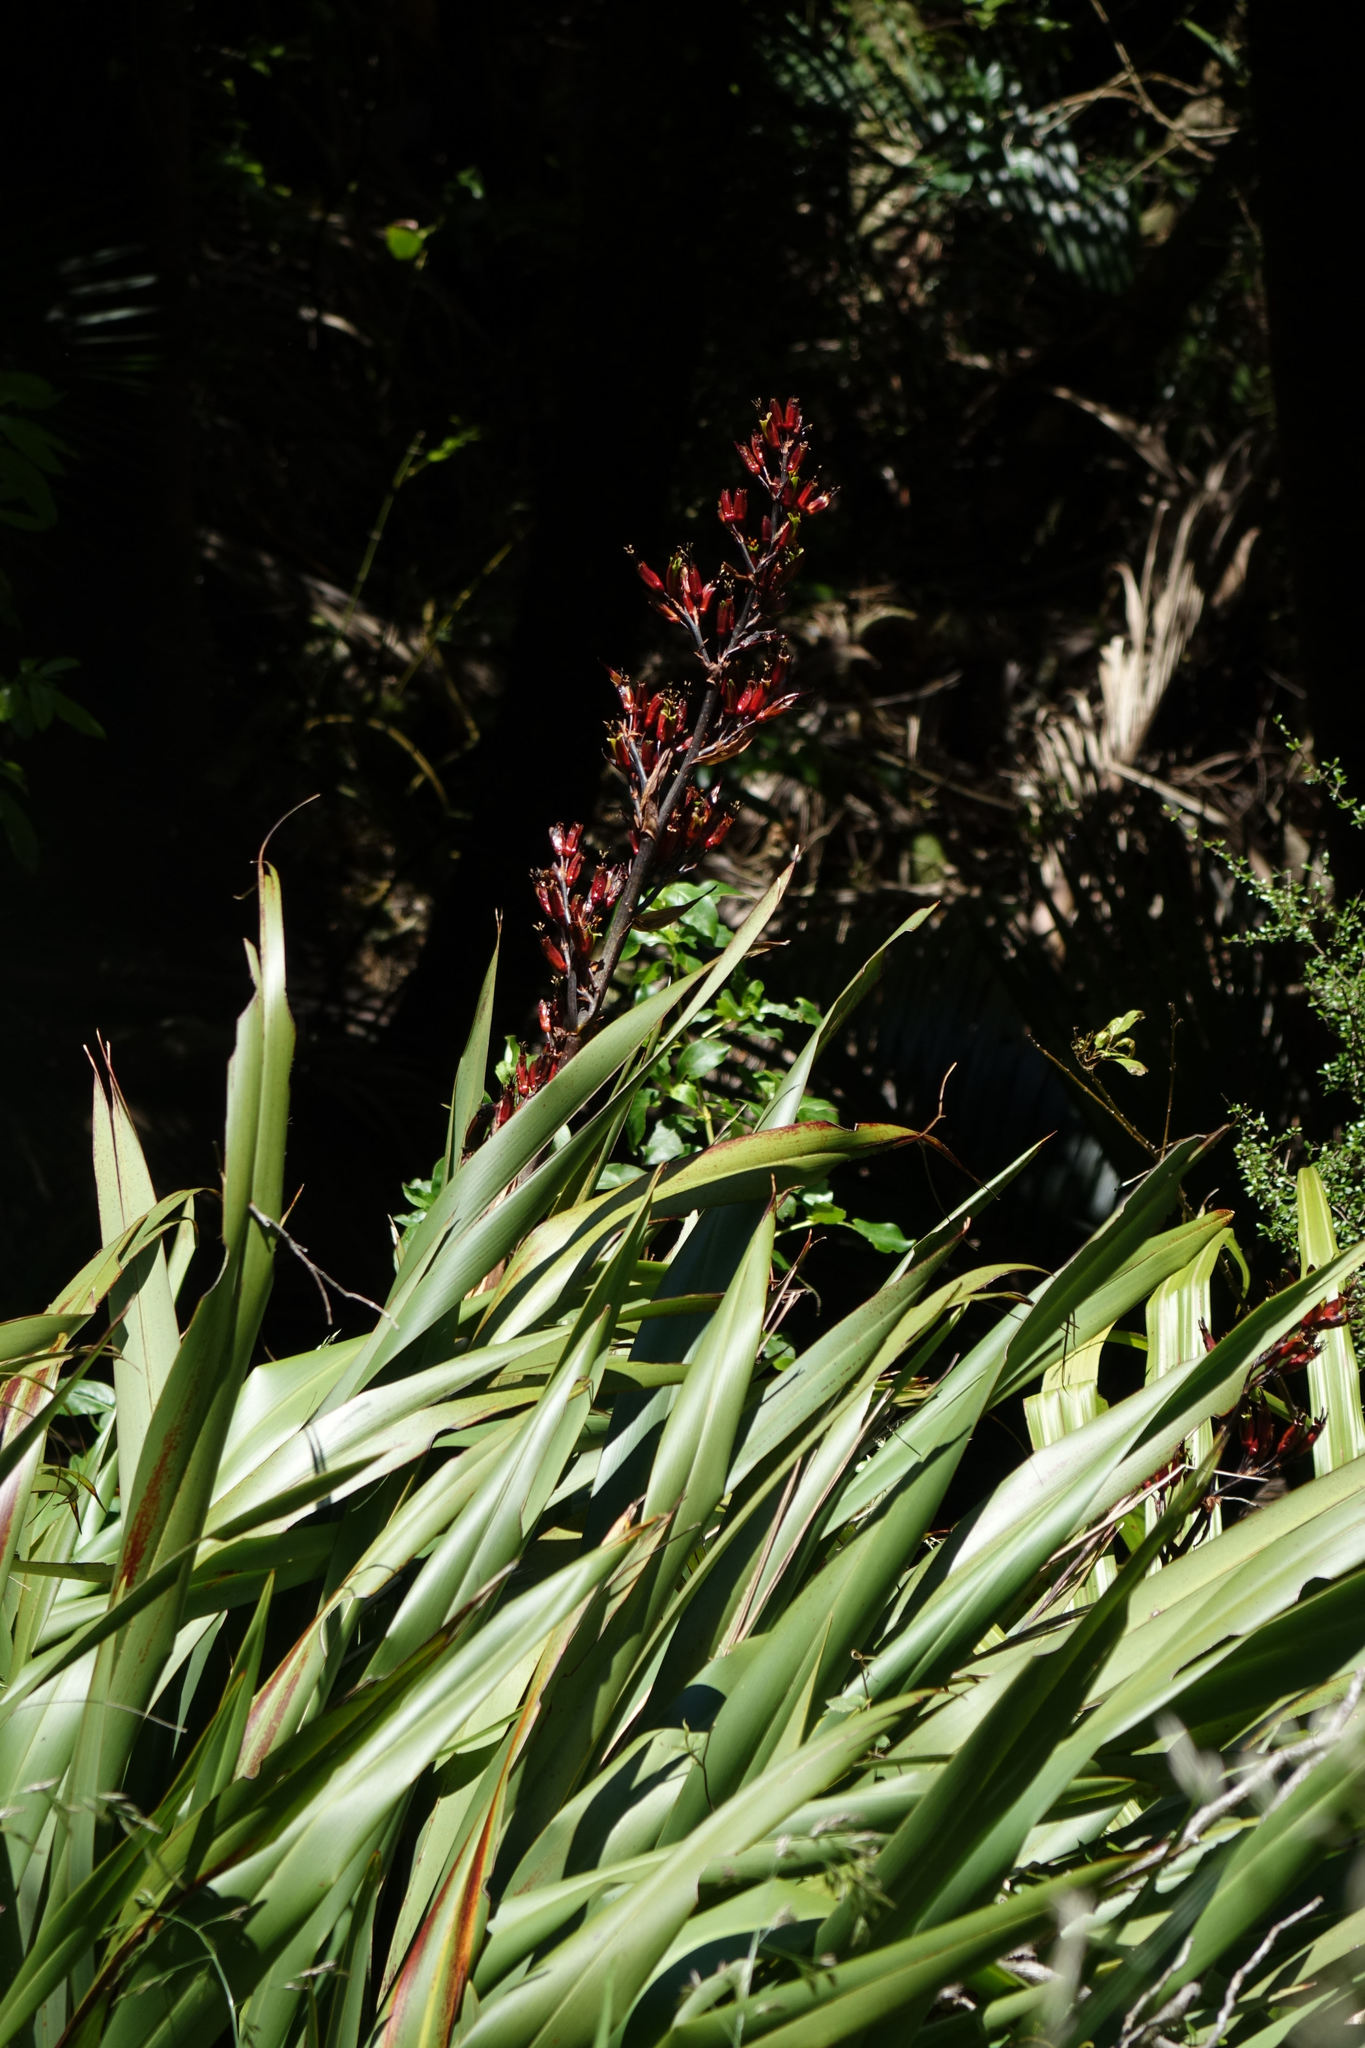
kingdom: Plantae
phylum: Tracheophyta
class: Liliopsida
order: Asparagales
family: Asphodelaceae
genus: Phormium
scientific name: Phormium colensoi
